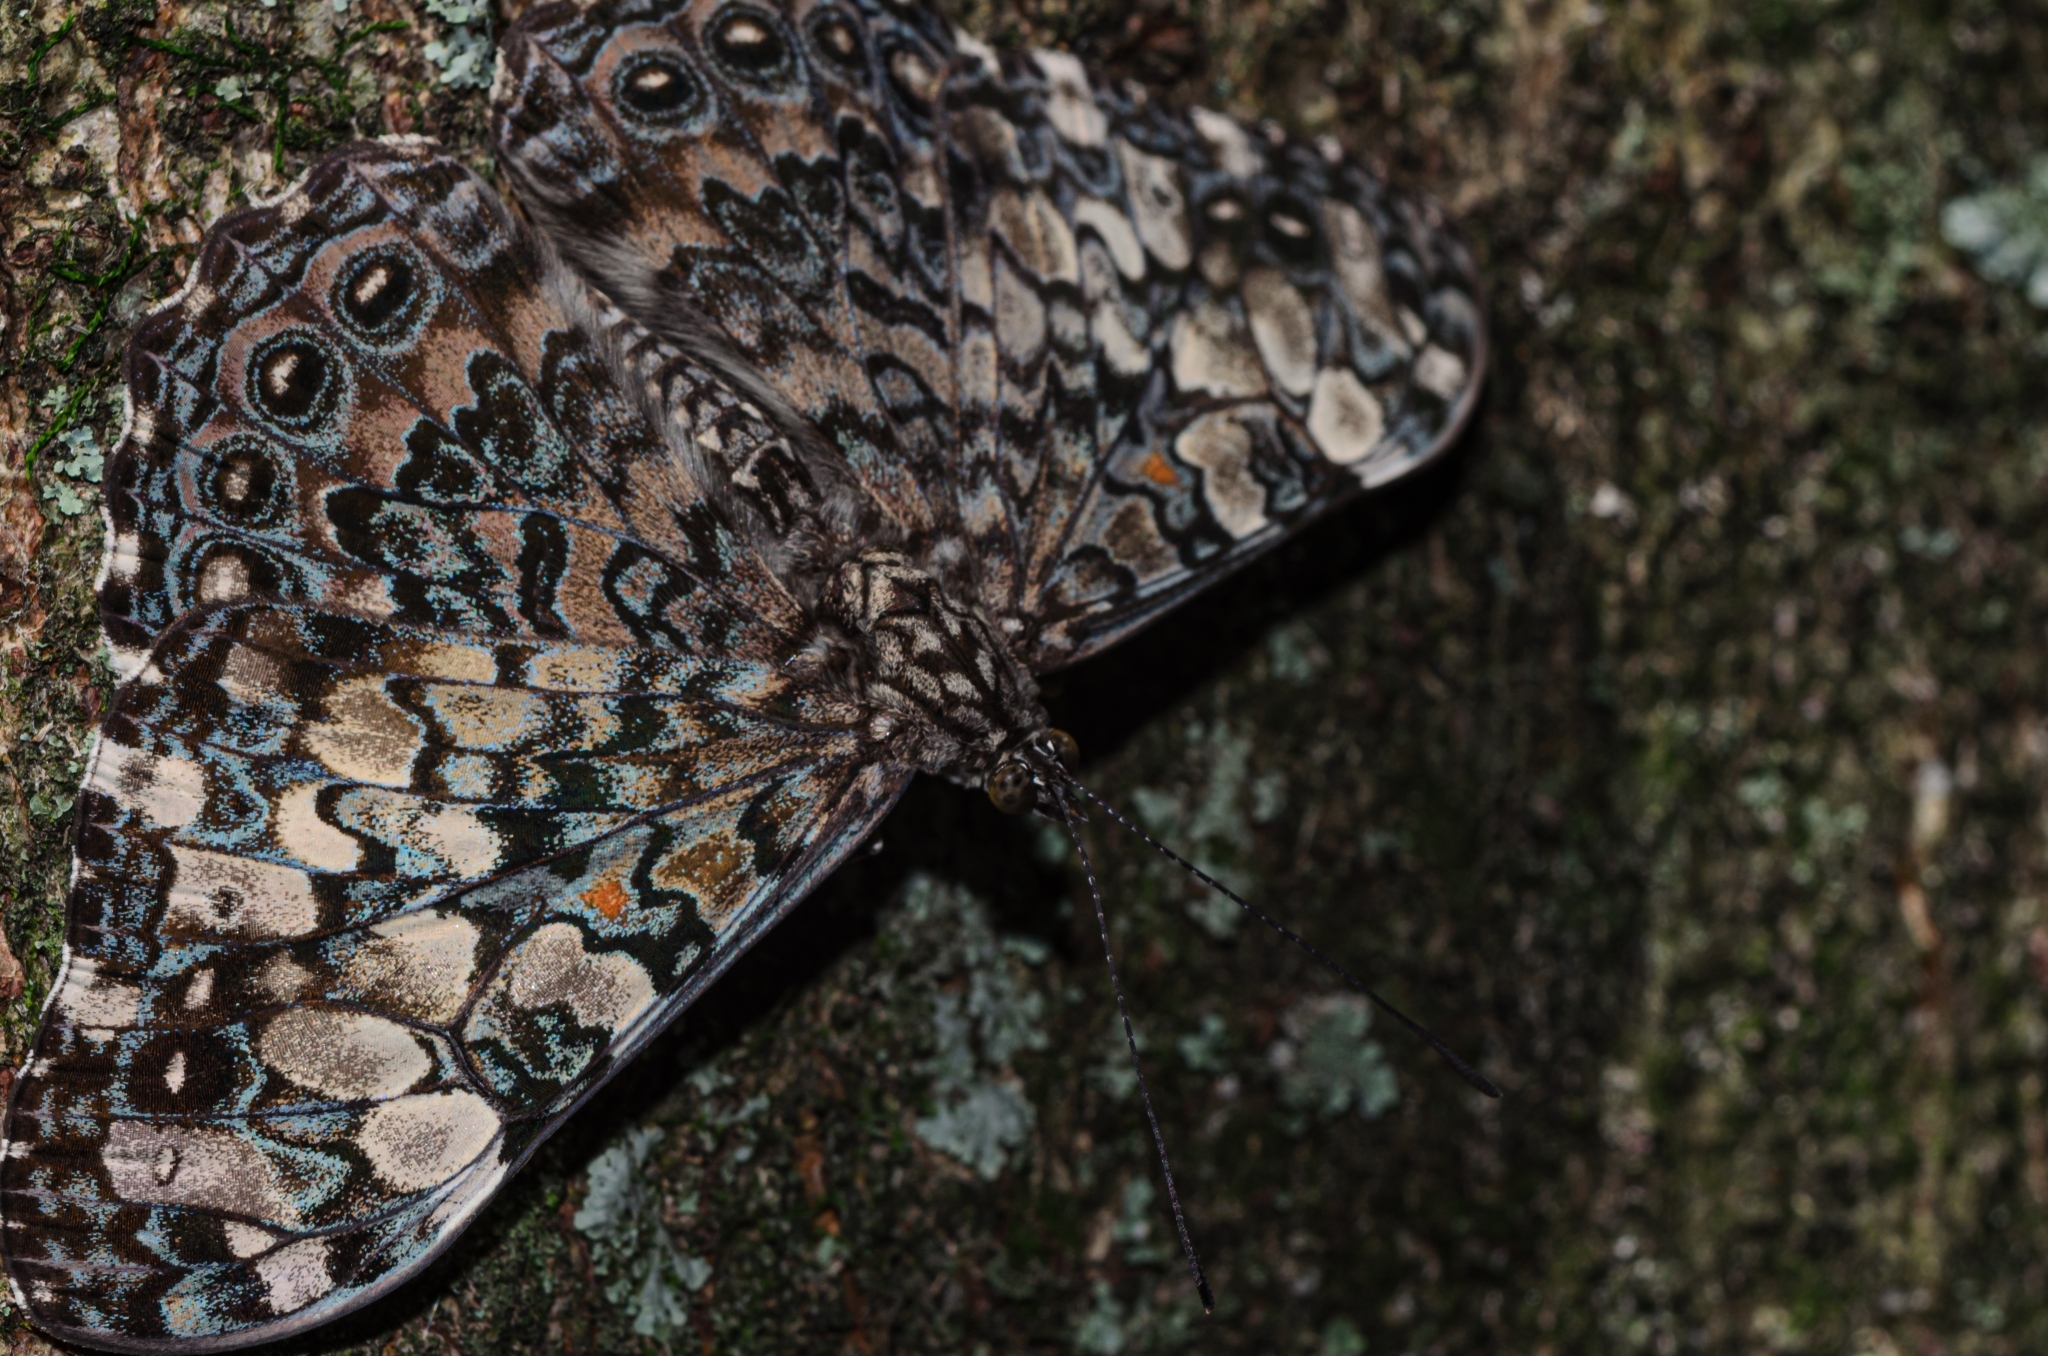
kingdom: Animalia
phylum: Arthropoda
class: Insecta
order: Lepidoptera
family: Nymphalidae
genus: Hamadryas
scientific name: Hamadryas epinome
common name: Epinome cracker
